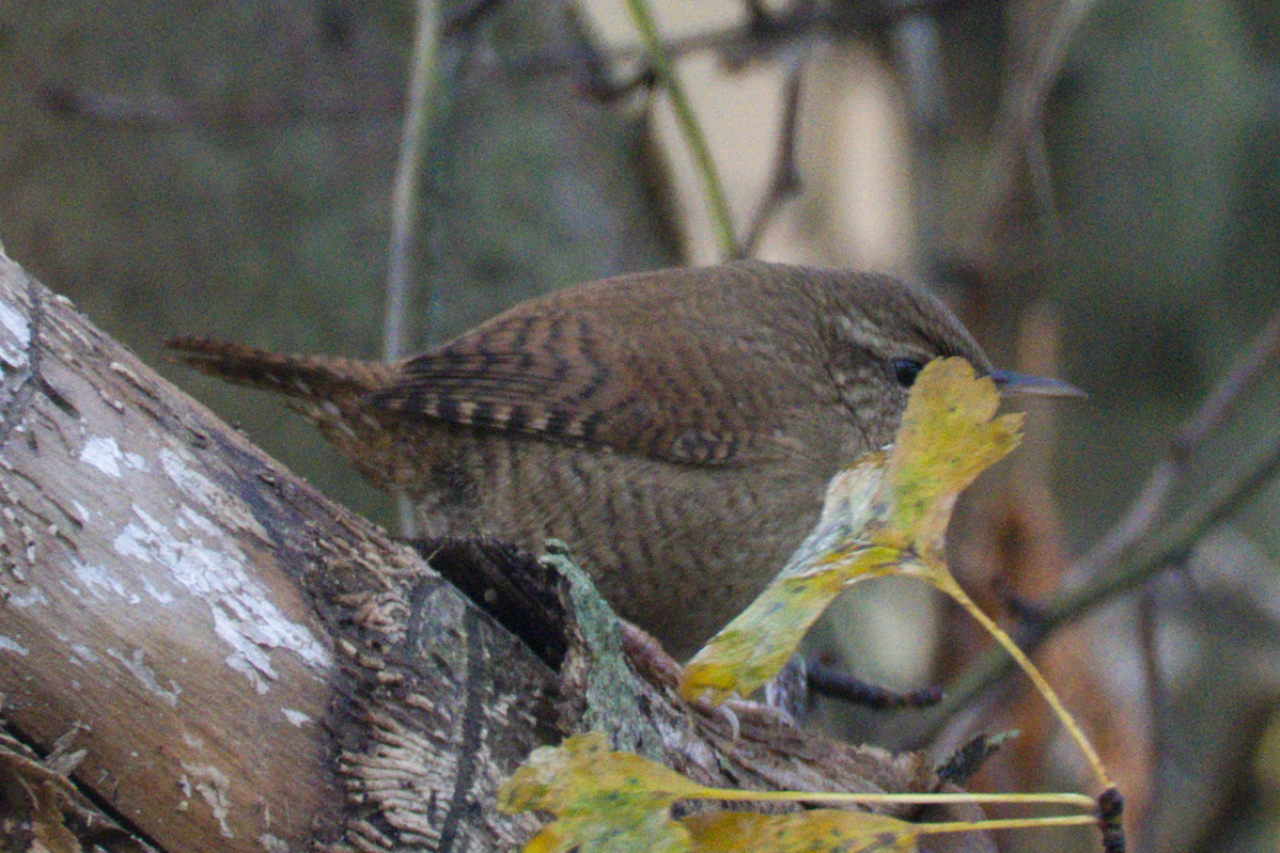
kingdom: Animalia
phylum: Chordata
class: Aves
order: Passeriformes
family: Troglodytidae
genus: Troglodytes
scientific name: Troglodytes troglodytes
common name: Eurasian wren
